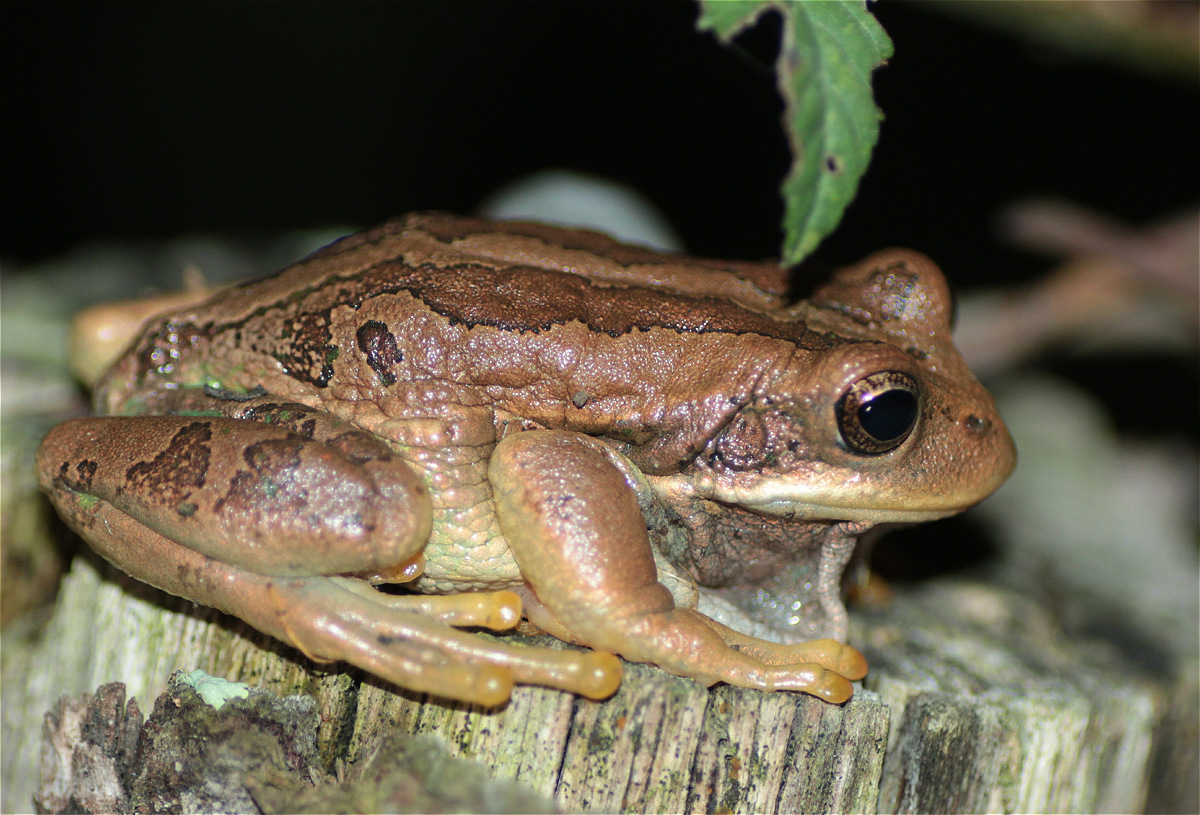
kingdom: Animalia
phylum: Chordata
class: Amphibia
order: Anura
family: Hemiphractidae
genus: Gastrotheca
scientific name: Gastrotheca cuencana
